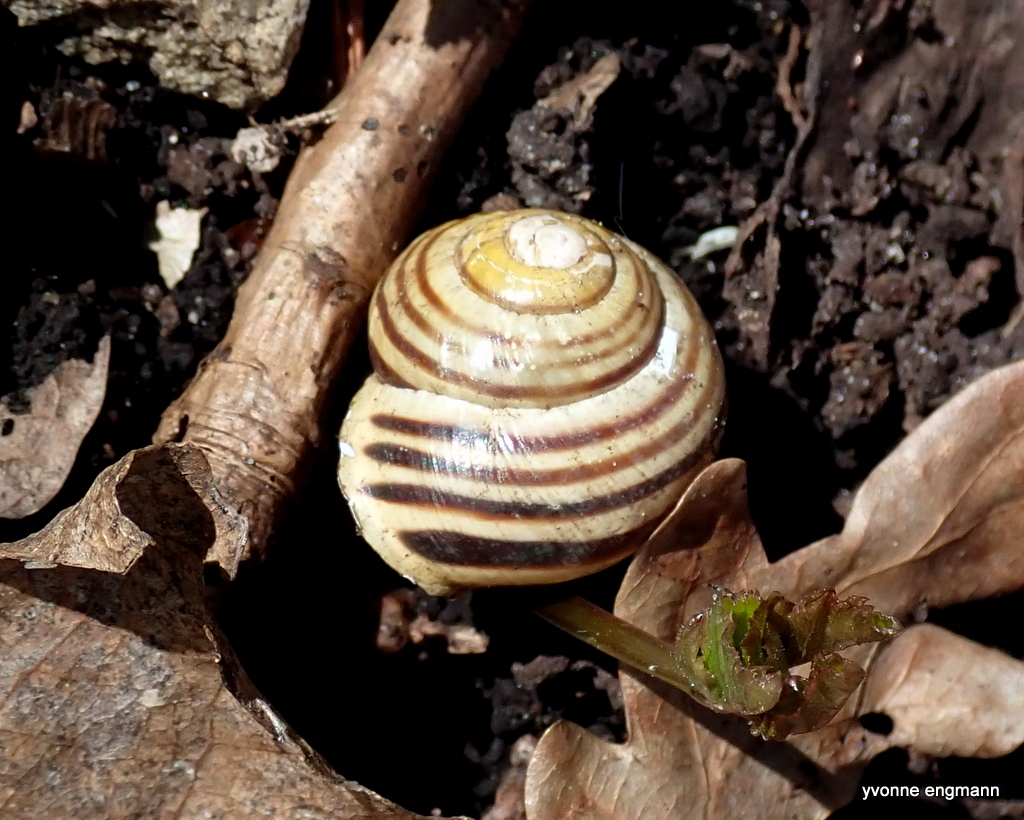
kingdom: Animalia
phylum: Mollusca
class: Gastropoda
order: Stylommatophora
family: Helicidae
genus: Cepaea
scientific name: Cepaea hortensis
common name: White-lip gardensnail
